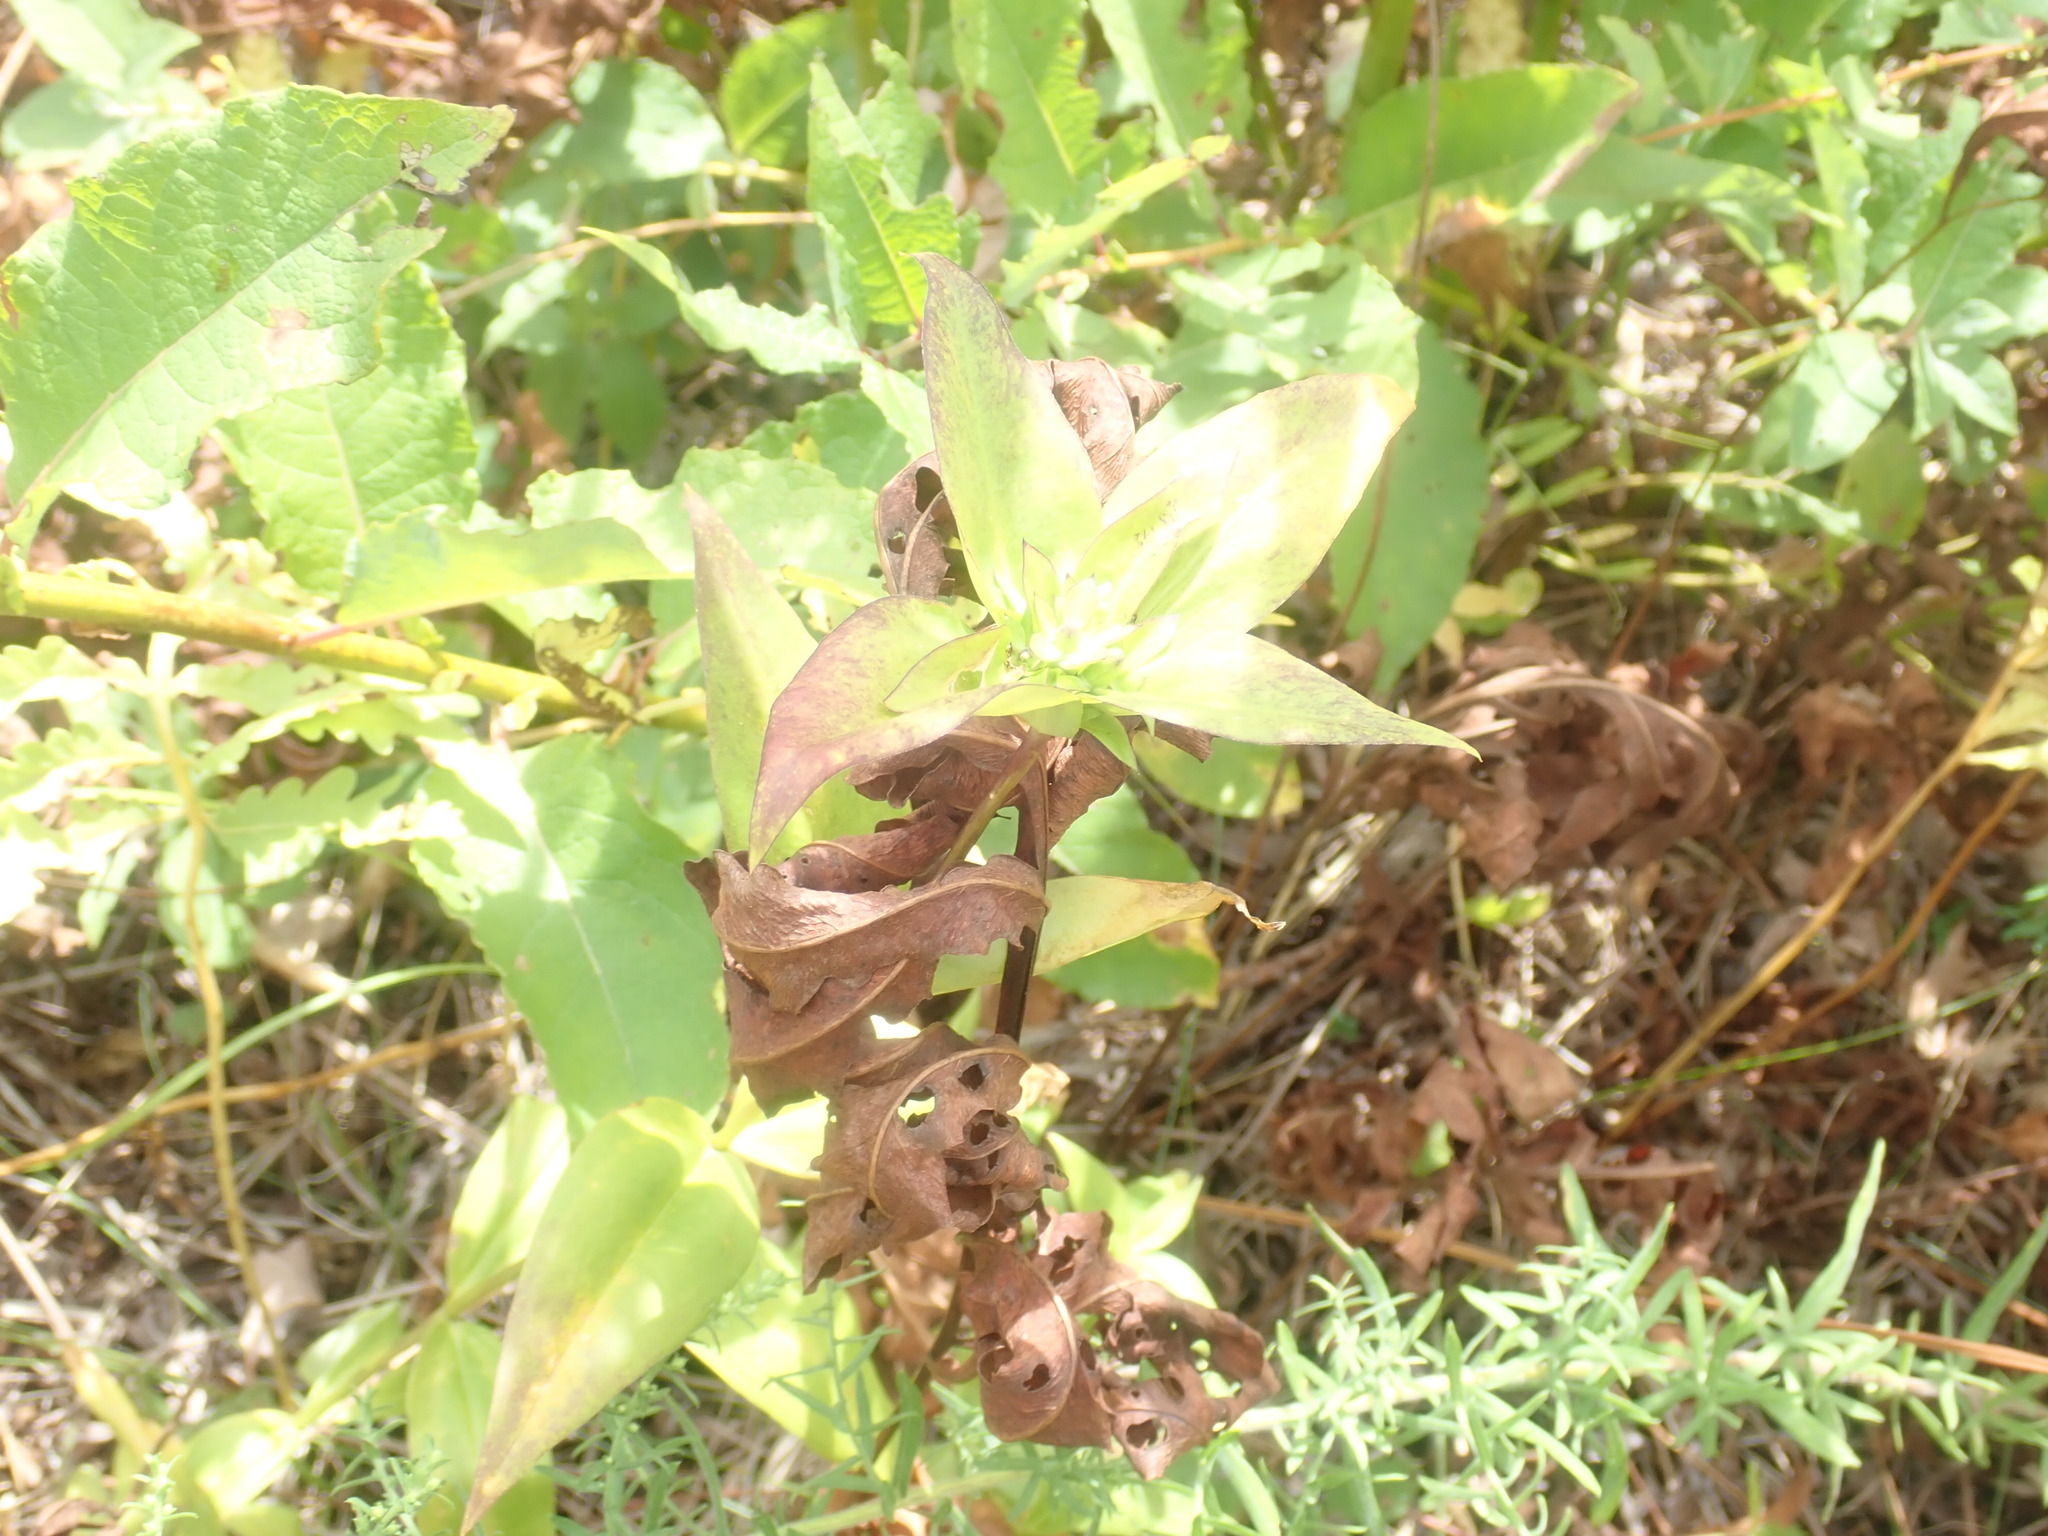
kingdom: Plantae
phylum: Tracheophyta
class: Magnoliopsida
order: Gentianales
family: Gentianaceae
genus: Gentiana
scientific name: Gentiana clausa
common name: Blind gentian
